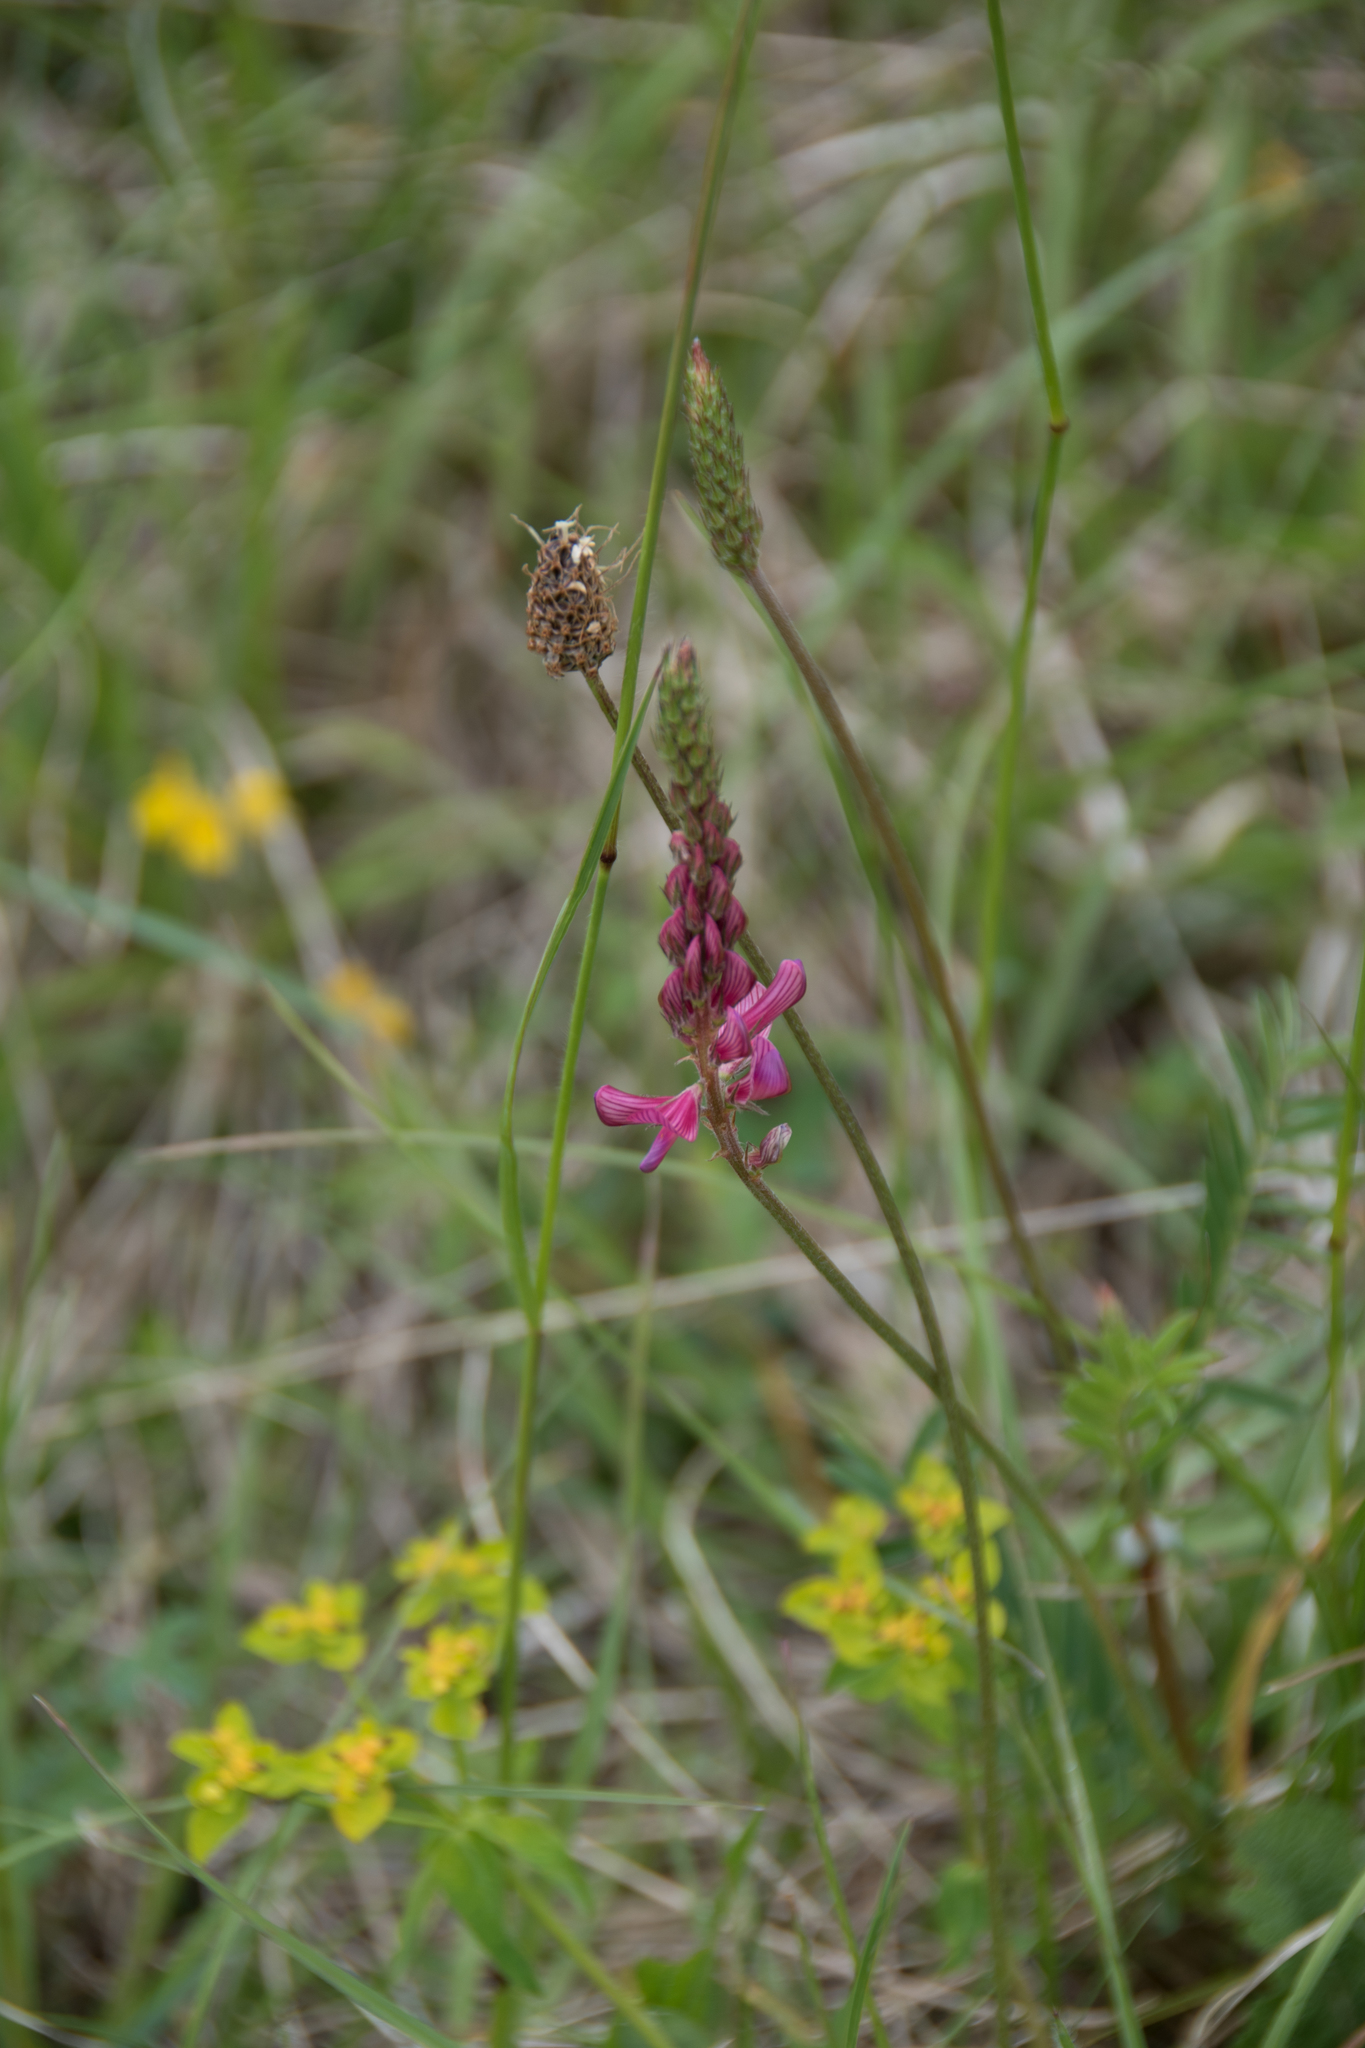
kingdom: Plantae
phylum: Tracheophyta
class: Magnoliopsida
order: Fabales
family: Fabaceae
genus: Onobrychis
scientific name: Onobrychis viciifolia
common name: Sainfoin
